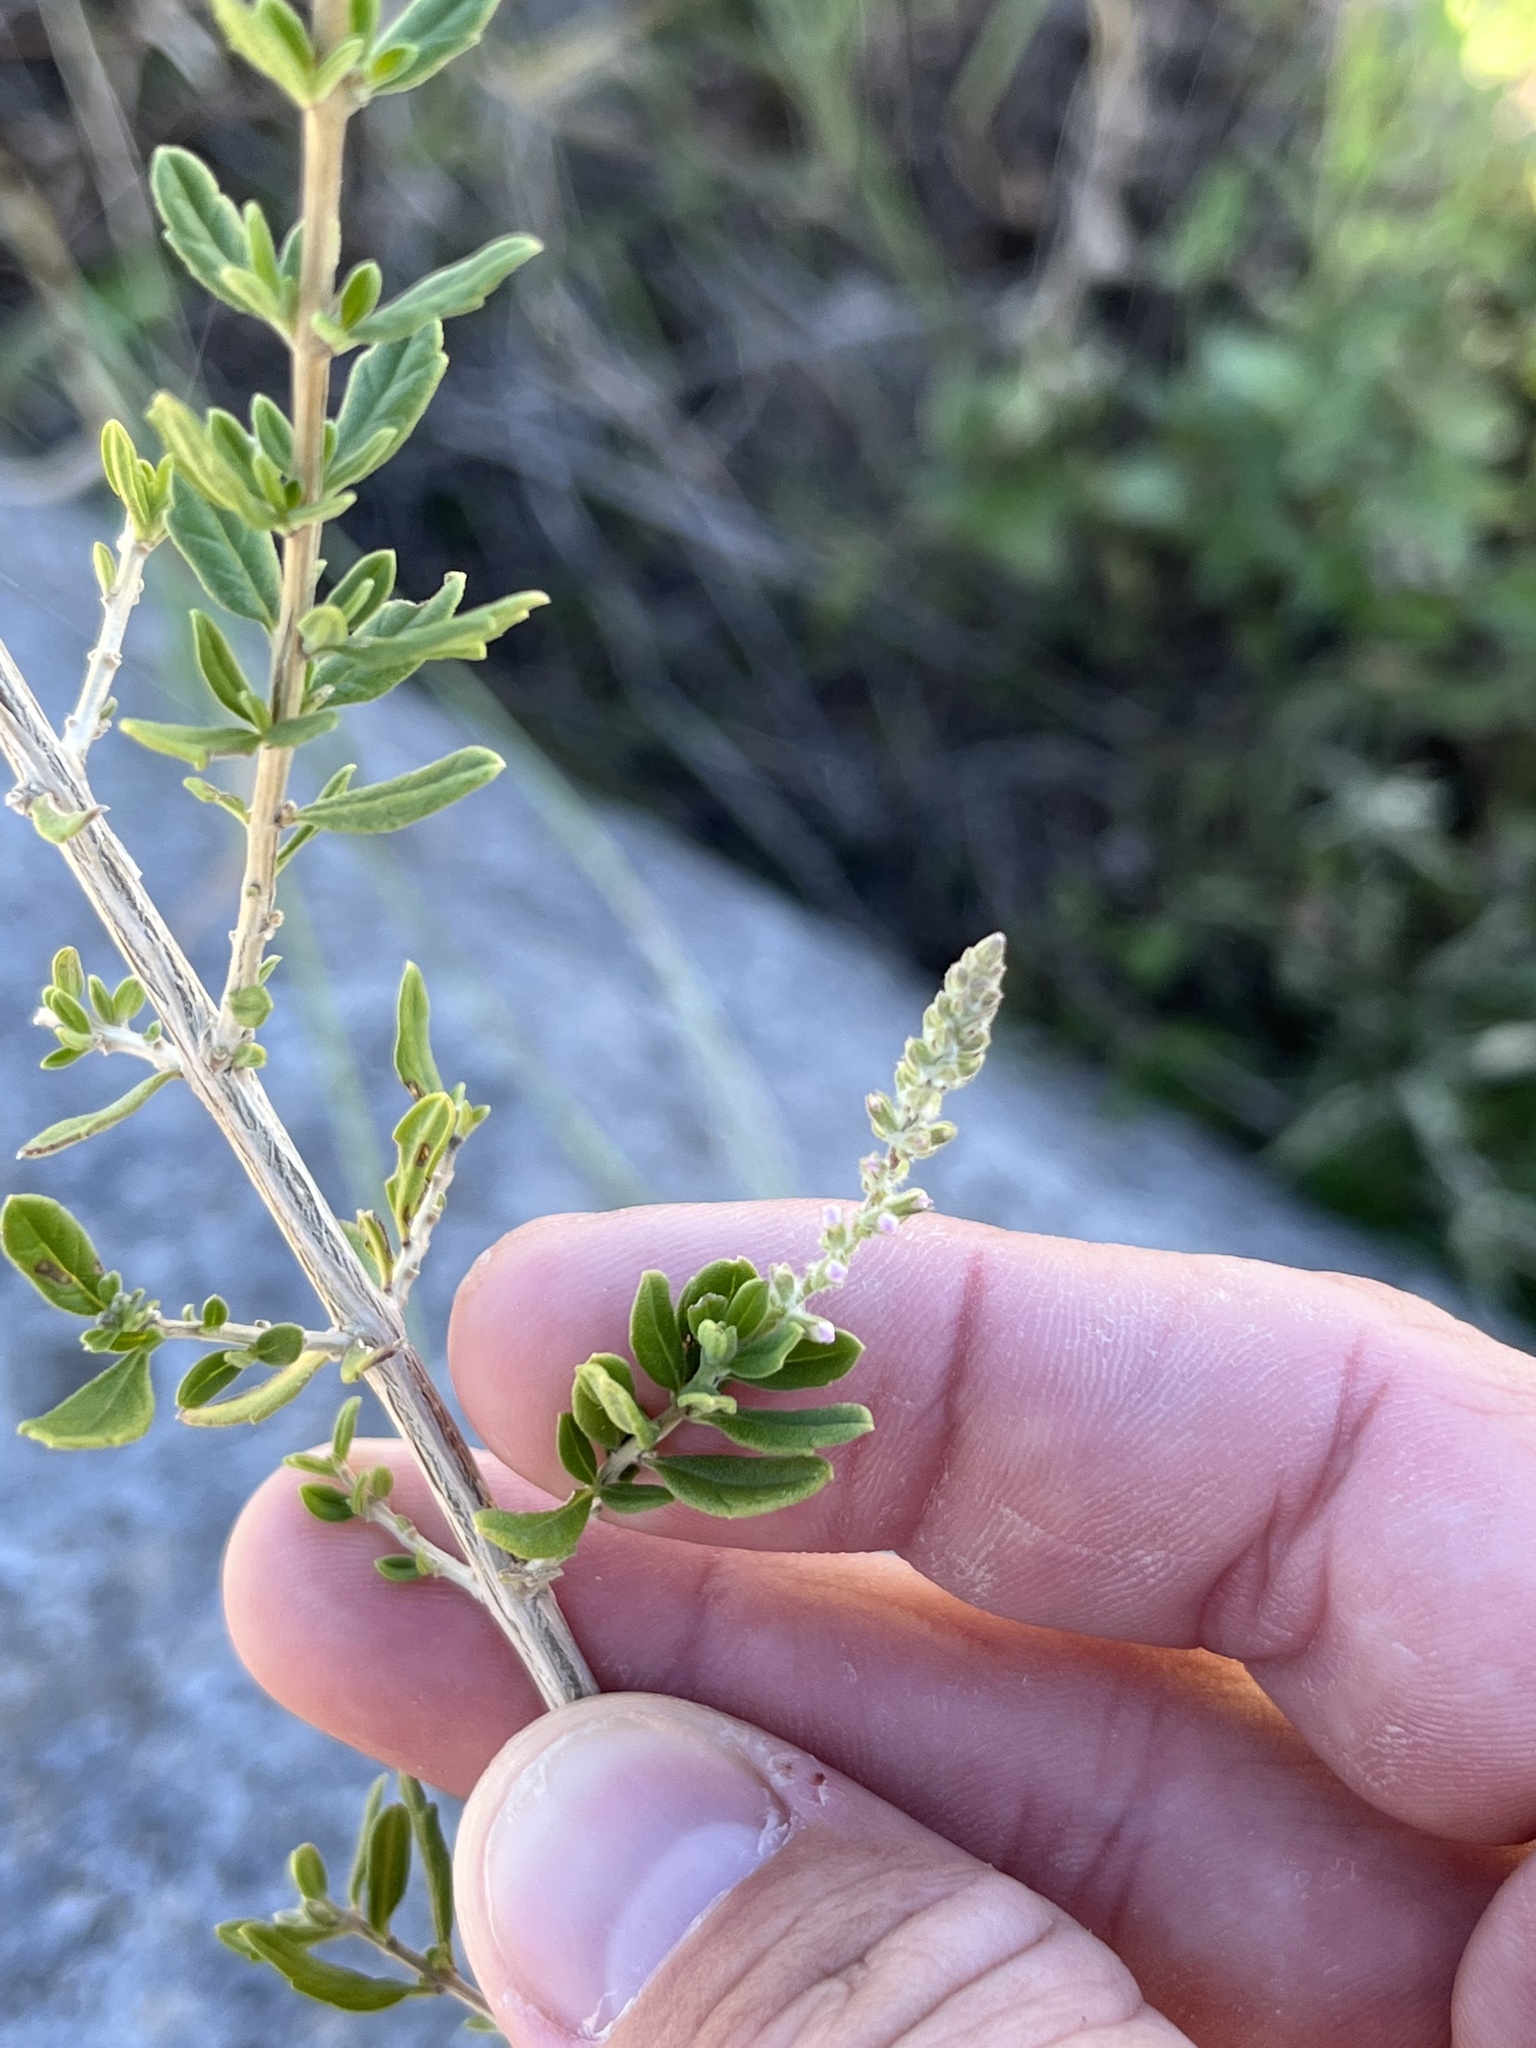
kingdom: Plantae
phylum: Tracheophyta
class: Magnoliopsida
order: Lamiales
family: Verbenaceae
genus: Aloysia
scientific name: Aloysia gratissima
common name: Common bee-brush
